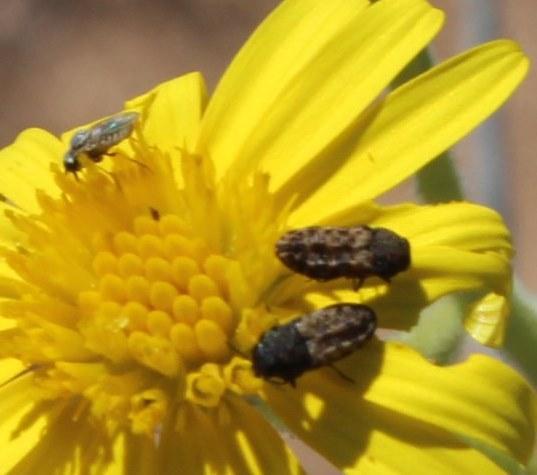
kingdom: Animalia
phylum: Arthropoda
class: Insecta
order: Coleoptera
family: Buprestidae
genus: Nothomorpha
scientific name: Nothomorpha minima
